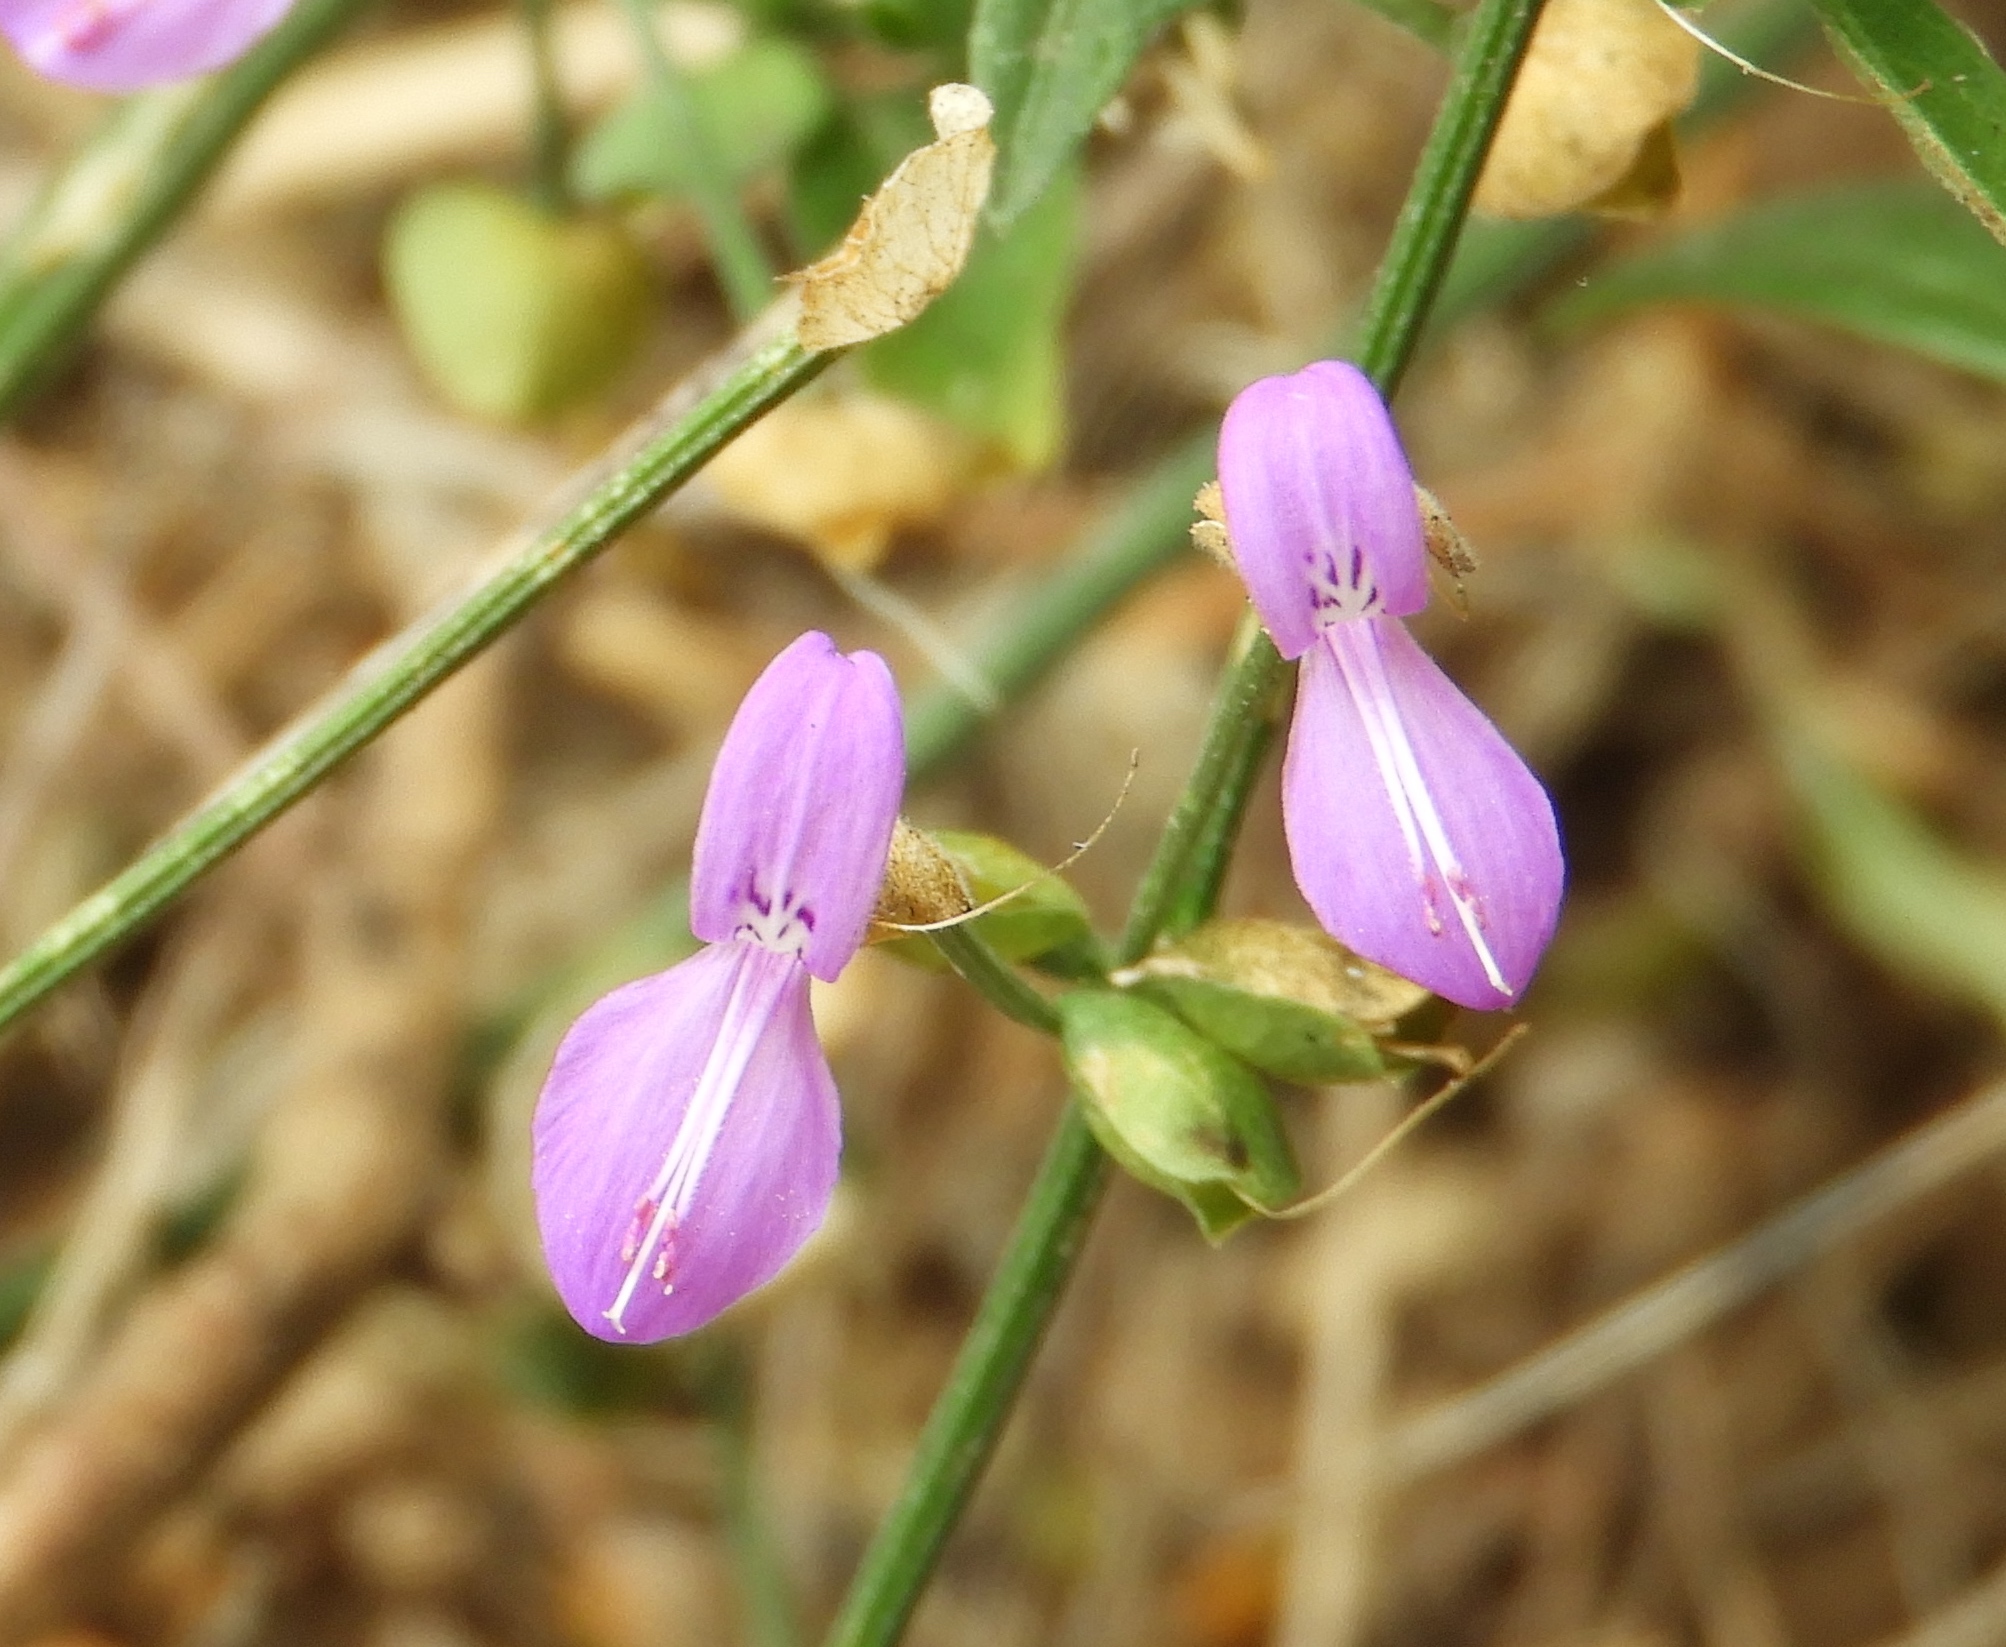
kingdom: Plantae
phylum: Tracheophyta
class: Magnoliopsida
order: Lamiales
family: Acanthaceae
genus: Dicliptera
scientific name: Dicliptera resupinata
